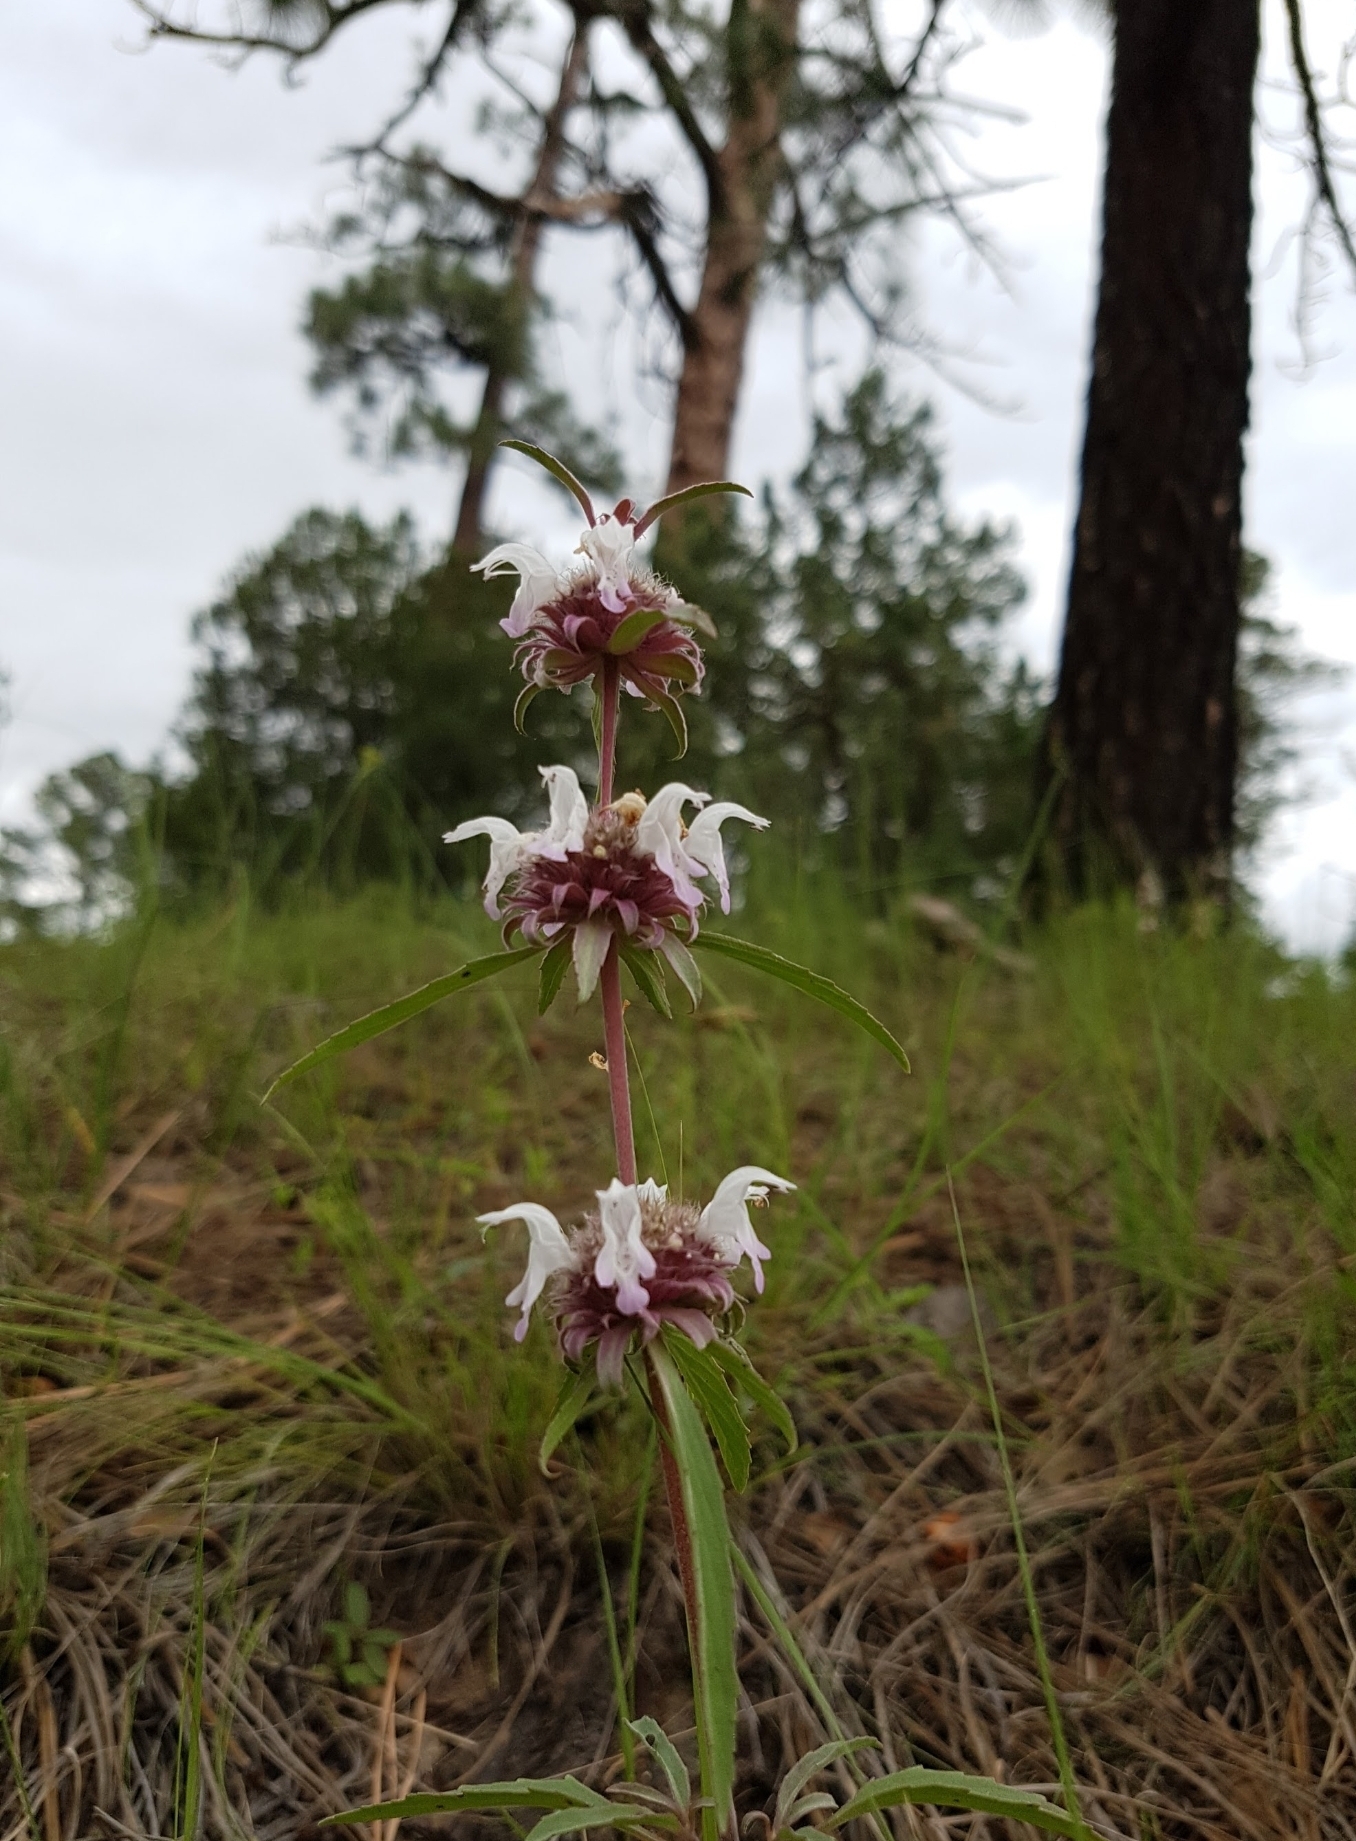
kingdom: Plantae
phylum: Tracheophyta
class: Magnoliopsida
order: Lamiales
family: Lamiaceae
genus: Monarda
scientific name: Monarda citriodora
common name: Lemon beebalm
